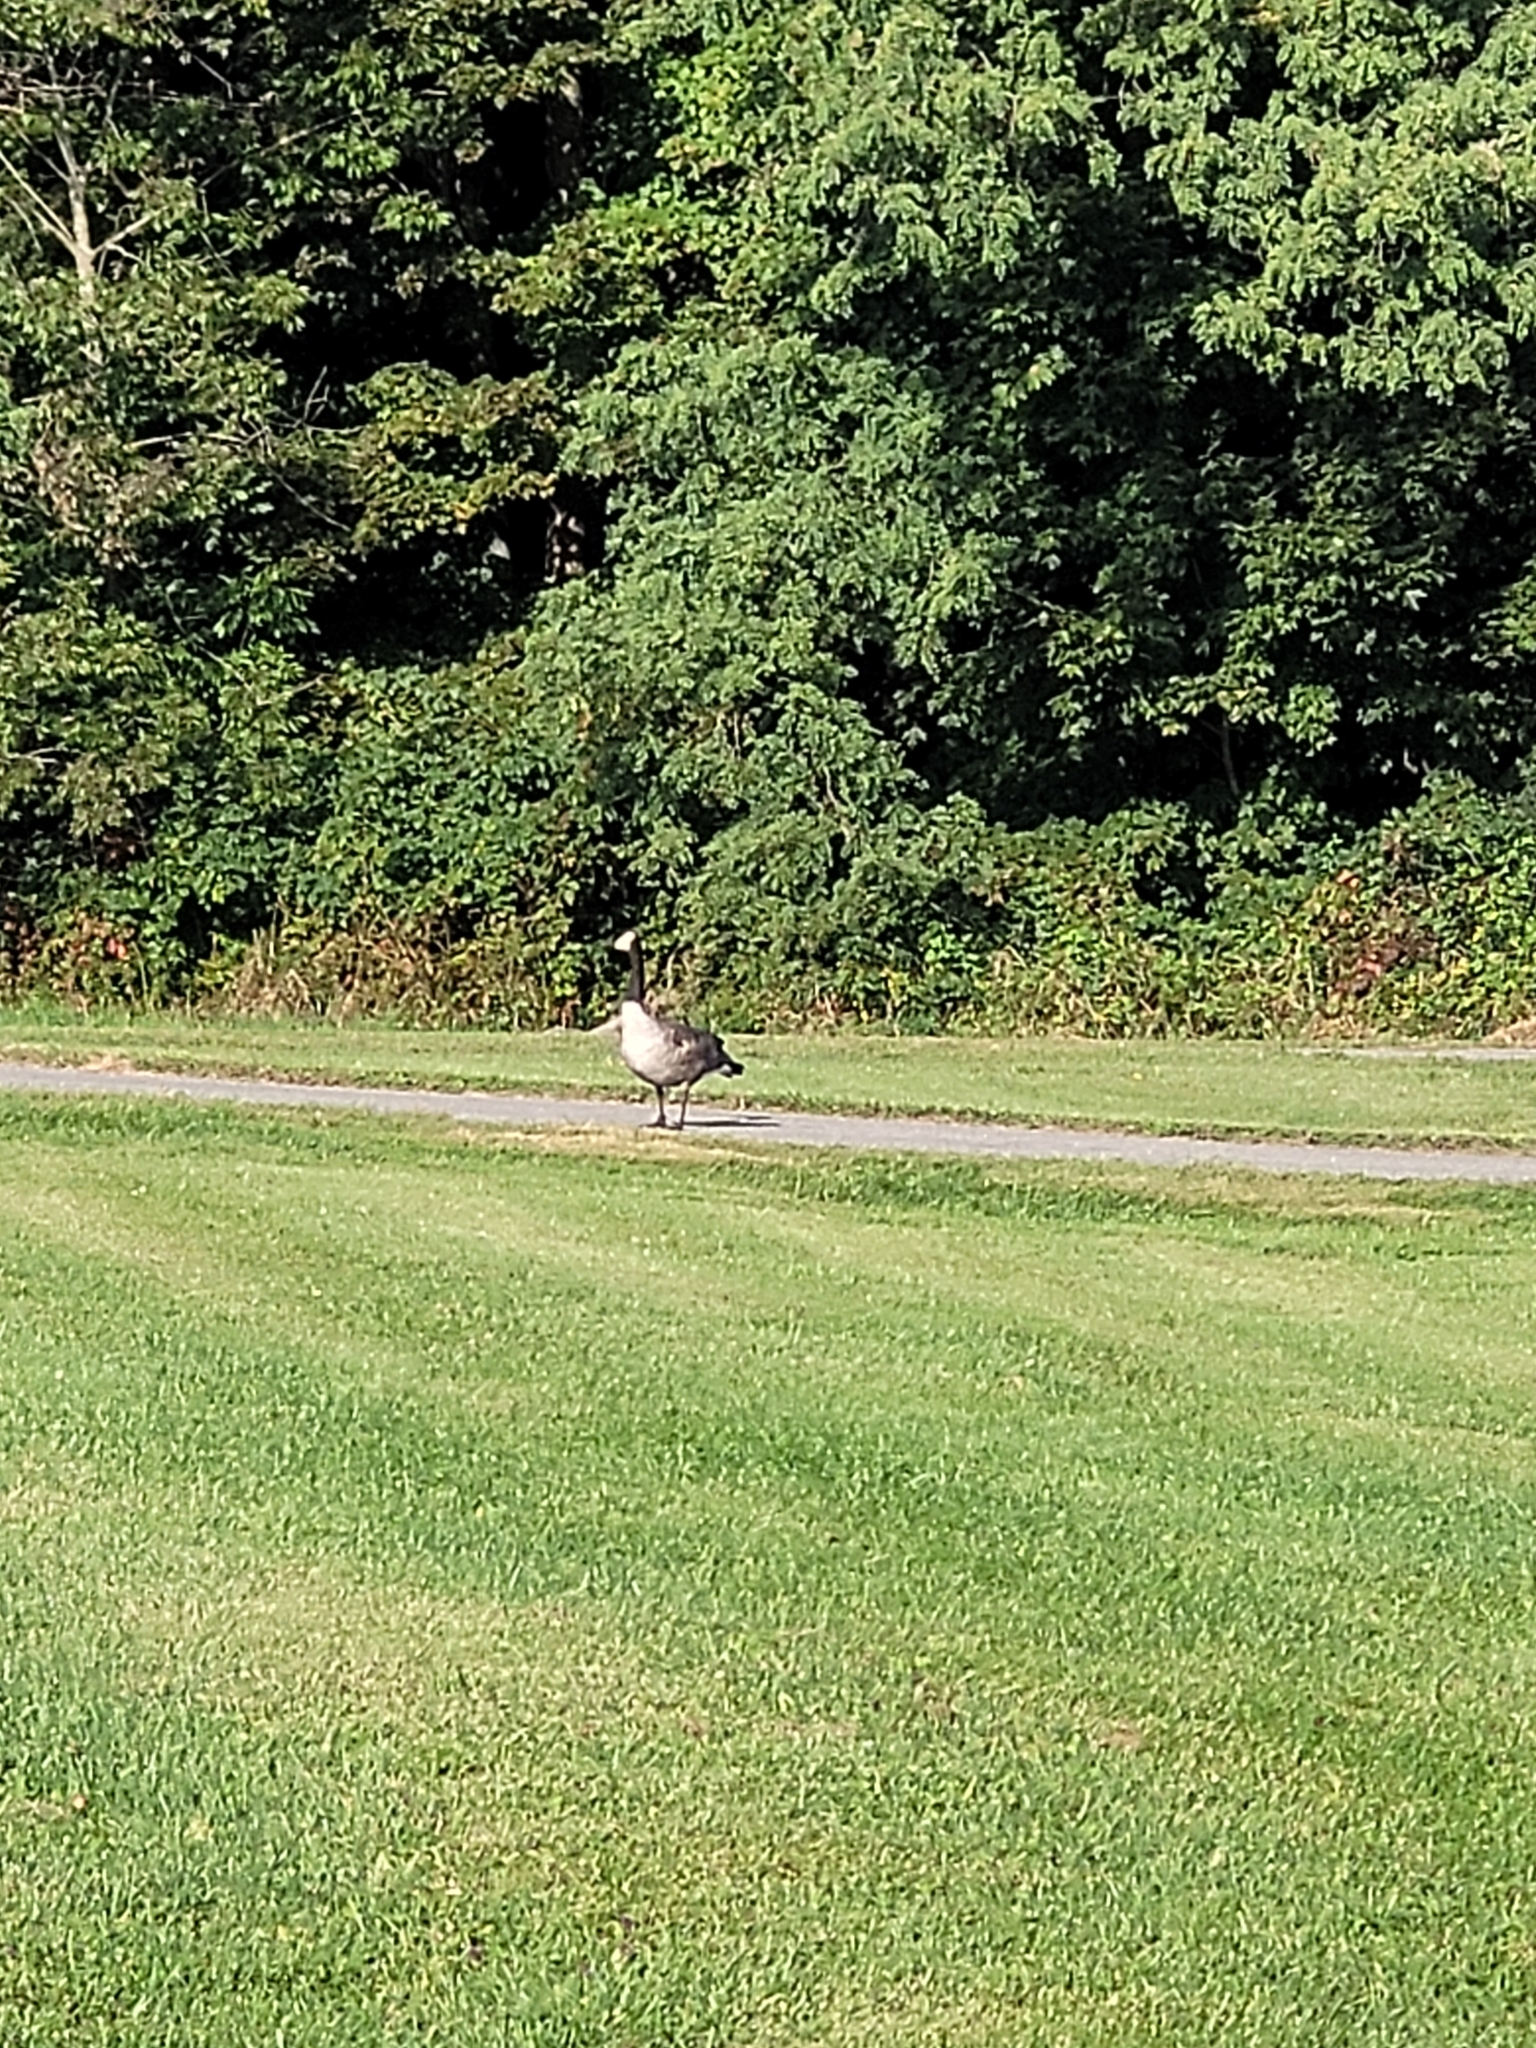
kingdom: Animalia
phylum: Chordata
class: Aves
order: Anseriformes
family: Anatidae
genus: Branta
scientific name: Branta canadensis
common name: Canada goose
